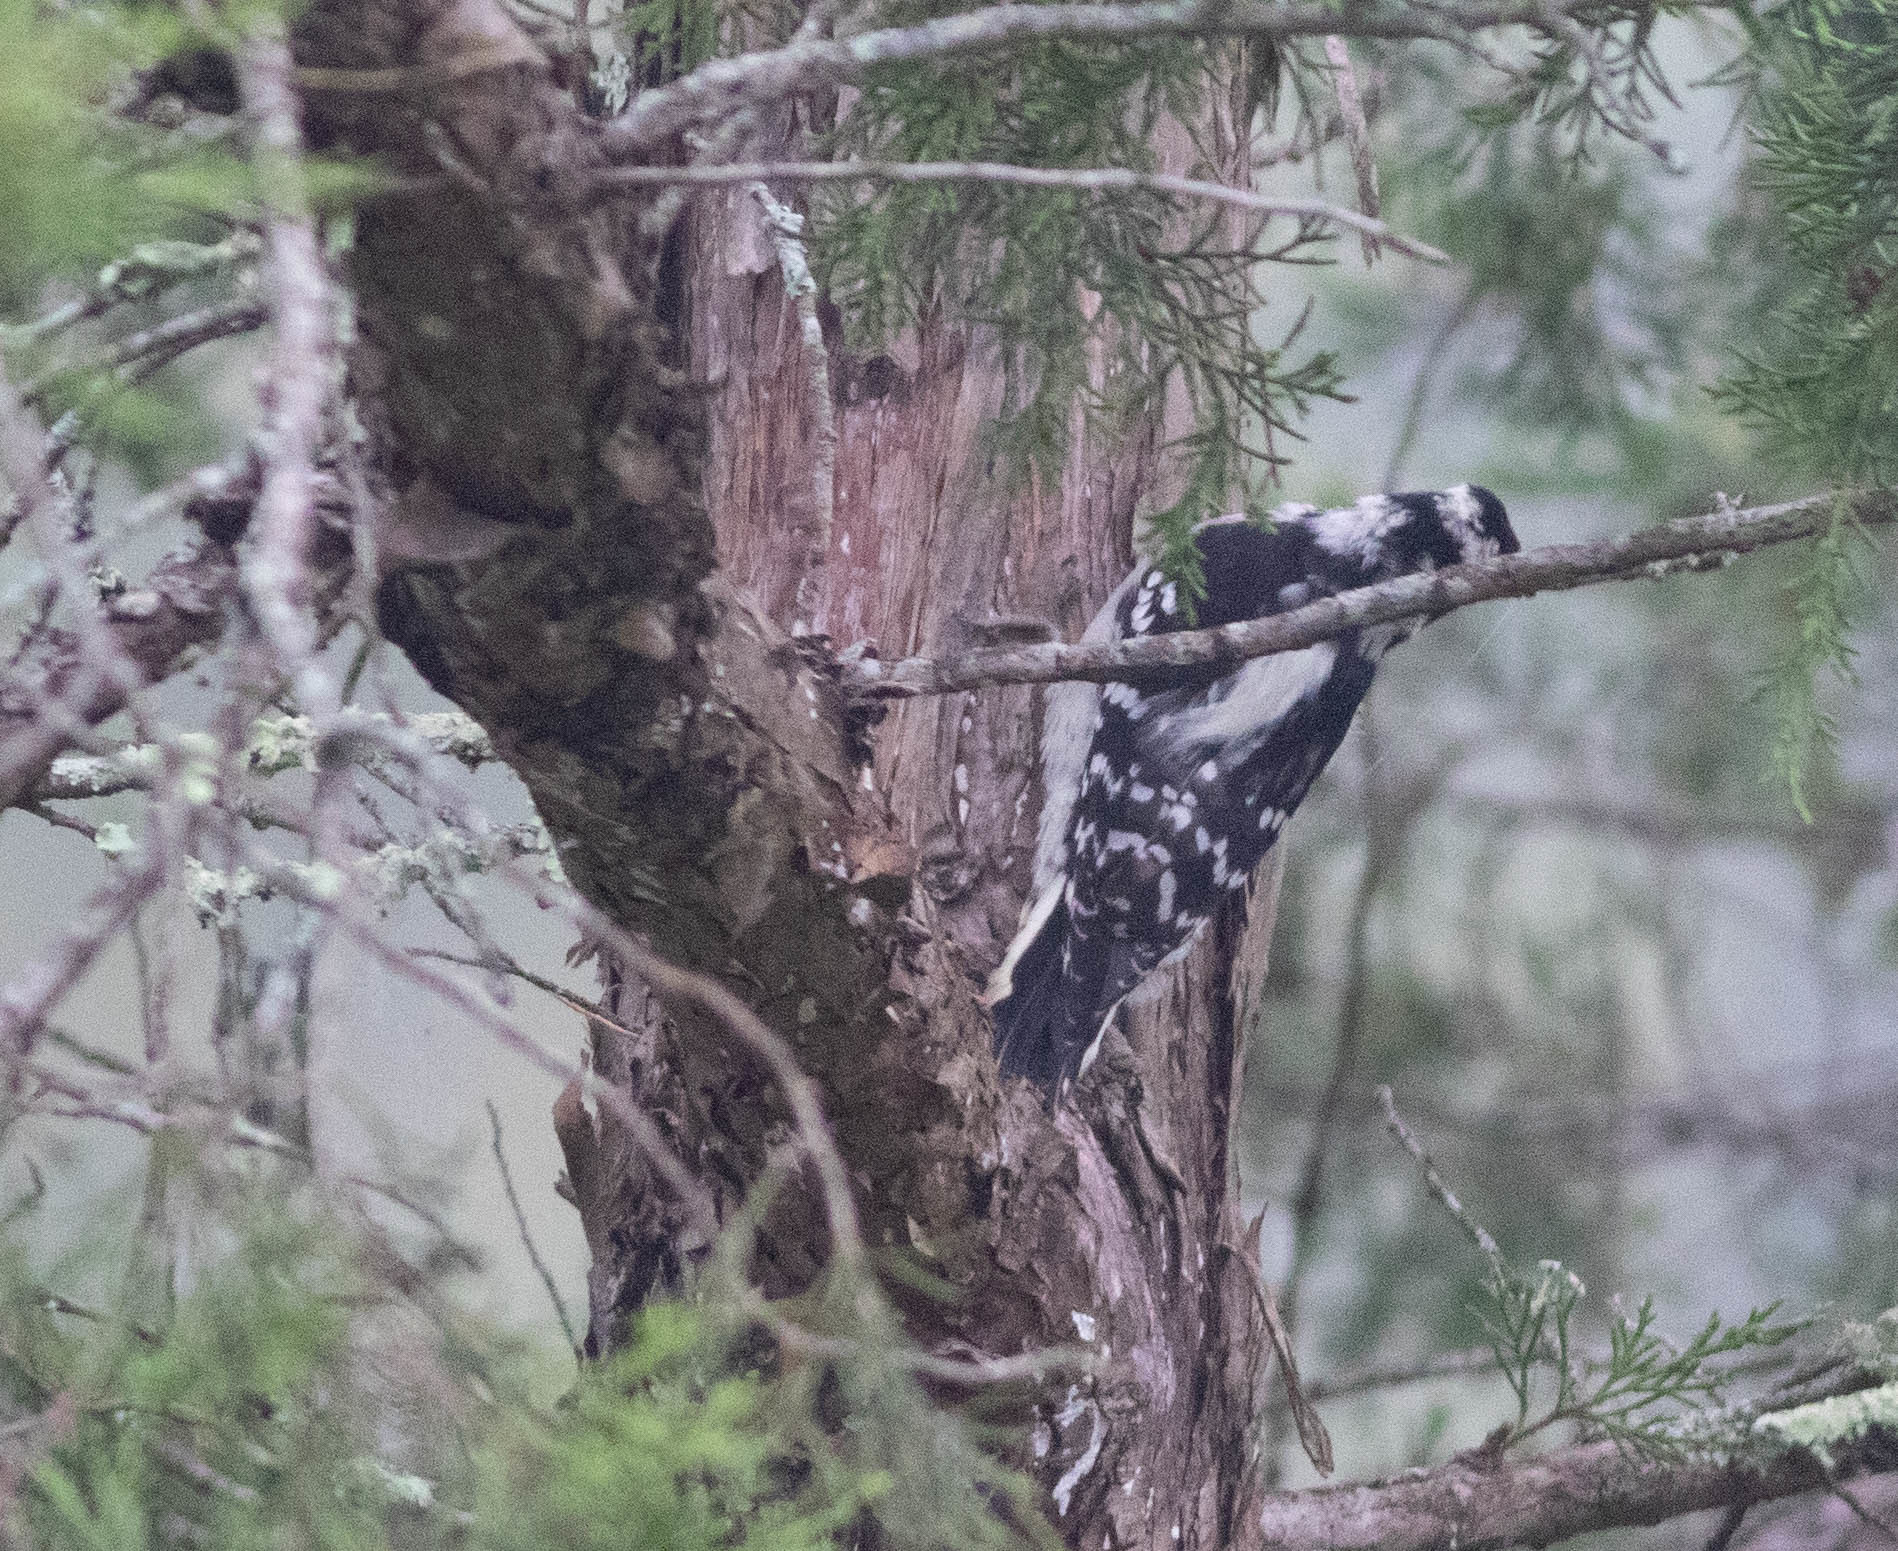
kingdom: Animalia
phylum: Chordata
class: Aves
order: Piciformes
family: Picidae
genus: Dryobates
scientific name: Dryobates pubescens
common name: Downy woodpecker
